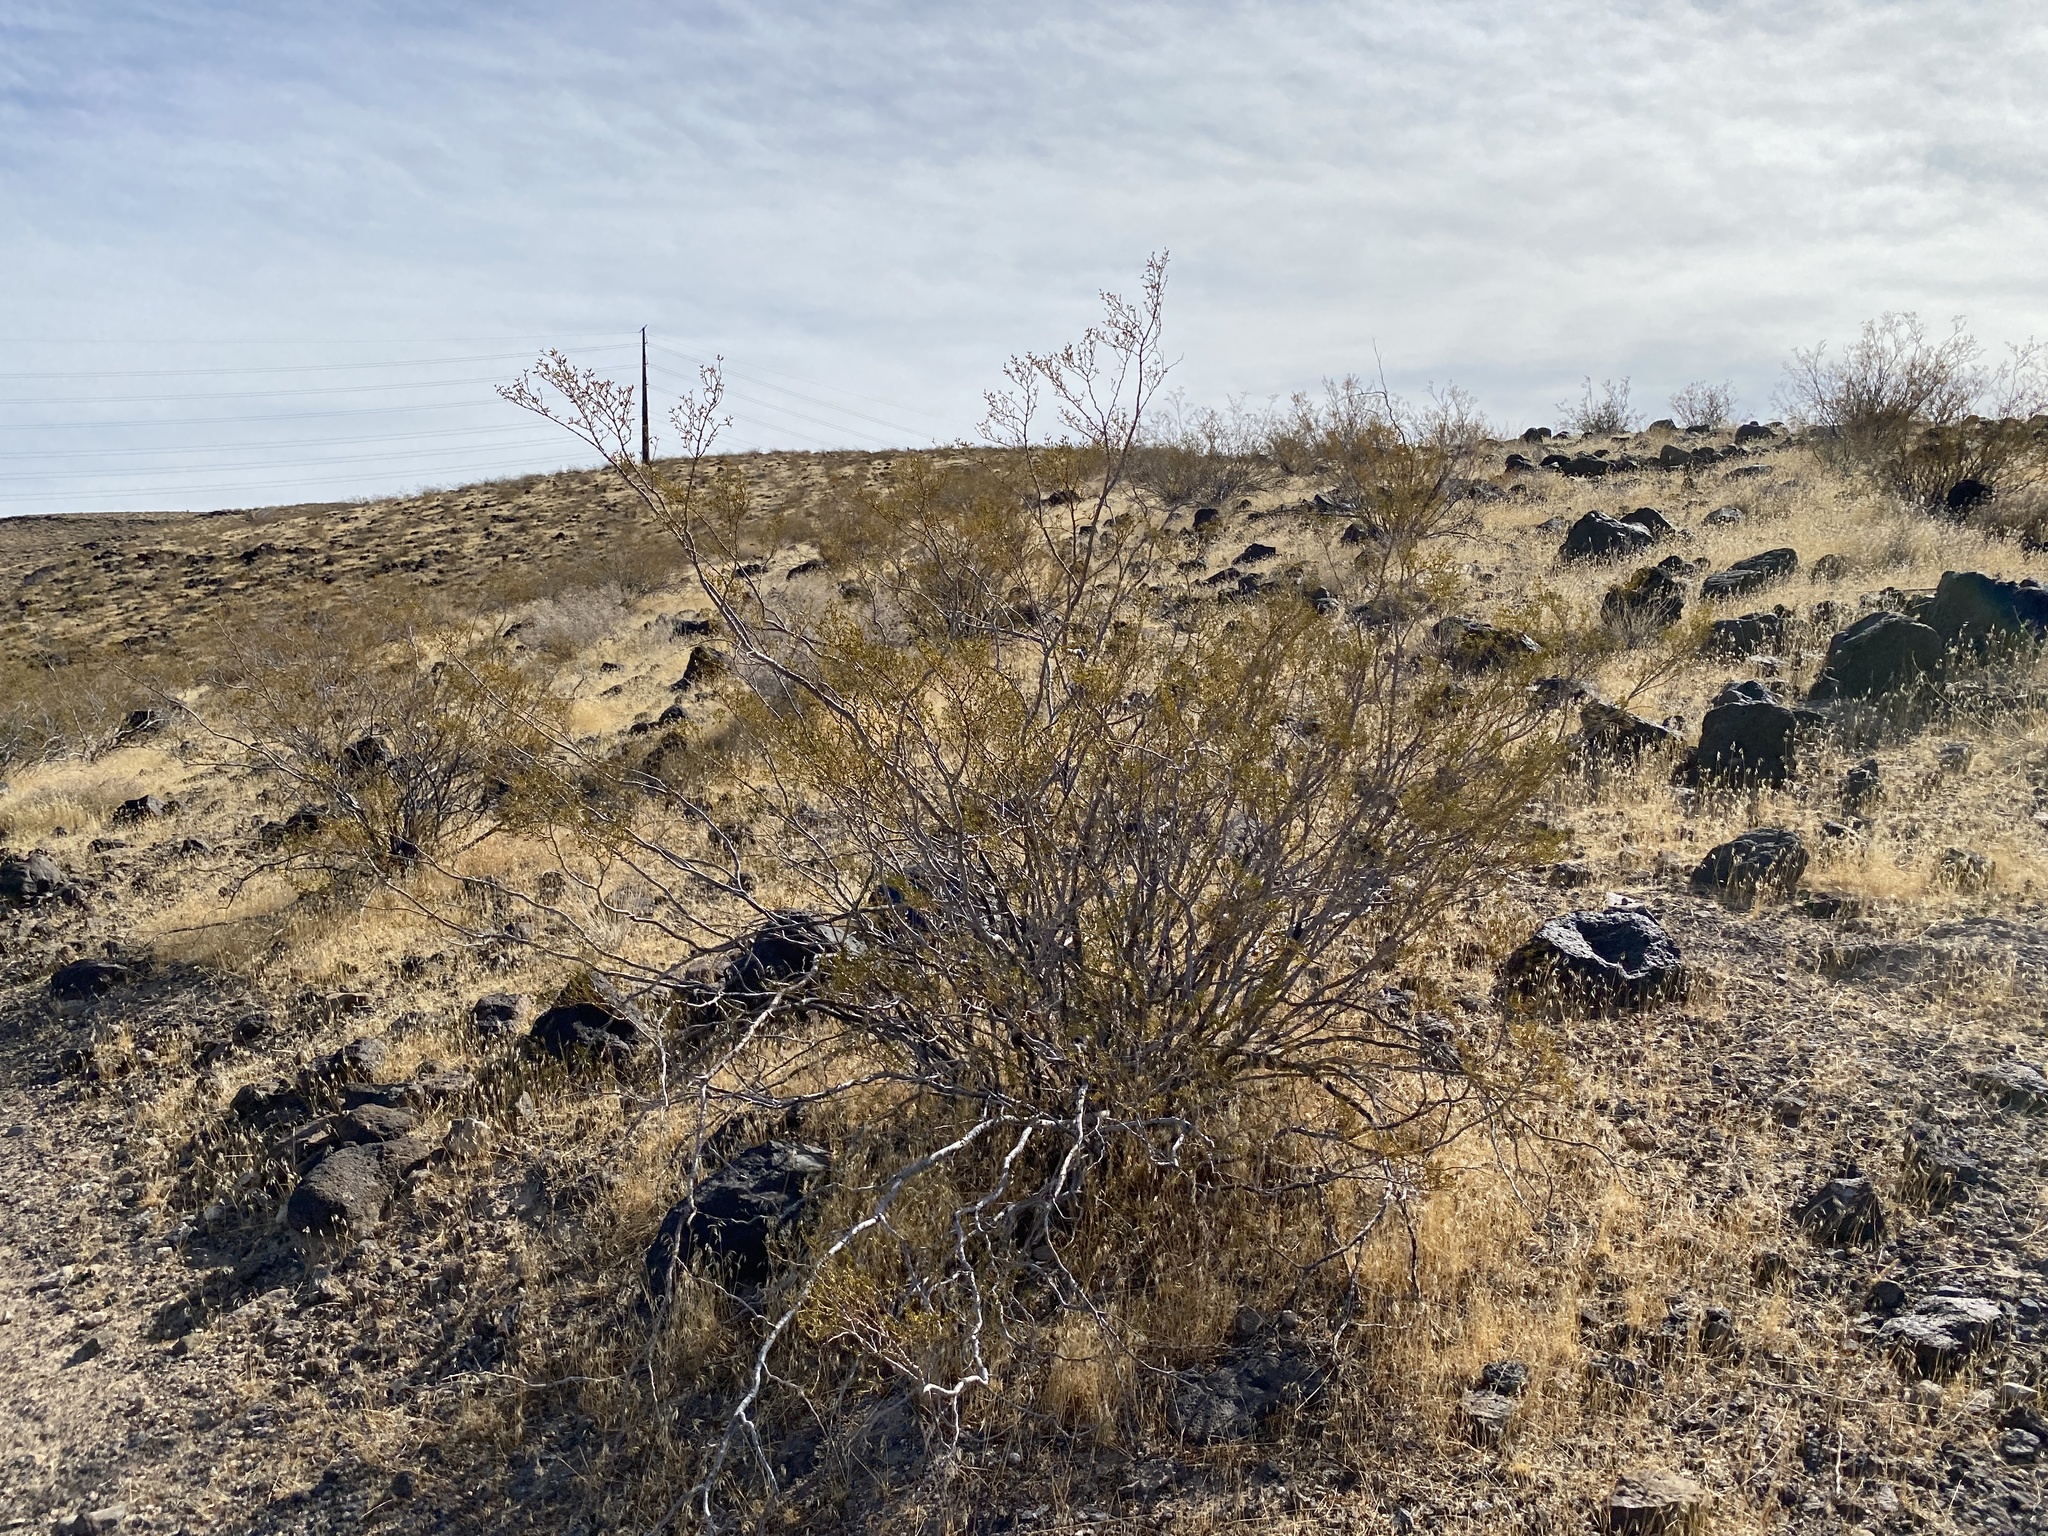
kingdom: Plantae
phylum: Tracheophyta
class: Magnoliopsida
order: Zygophyllales
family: Zygophyllaceae
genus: Larrea
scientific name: Larrea tridentata
